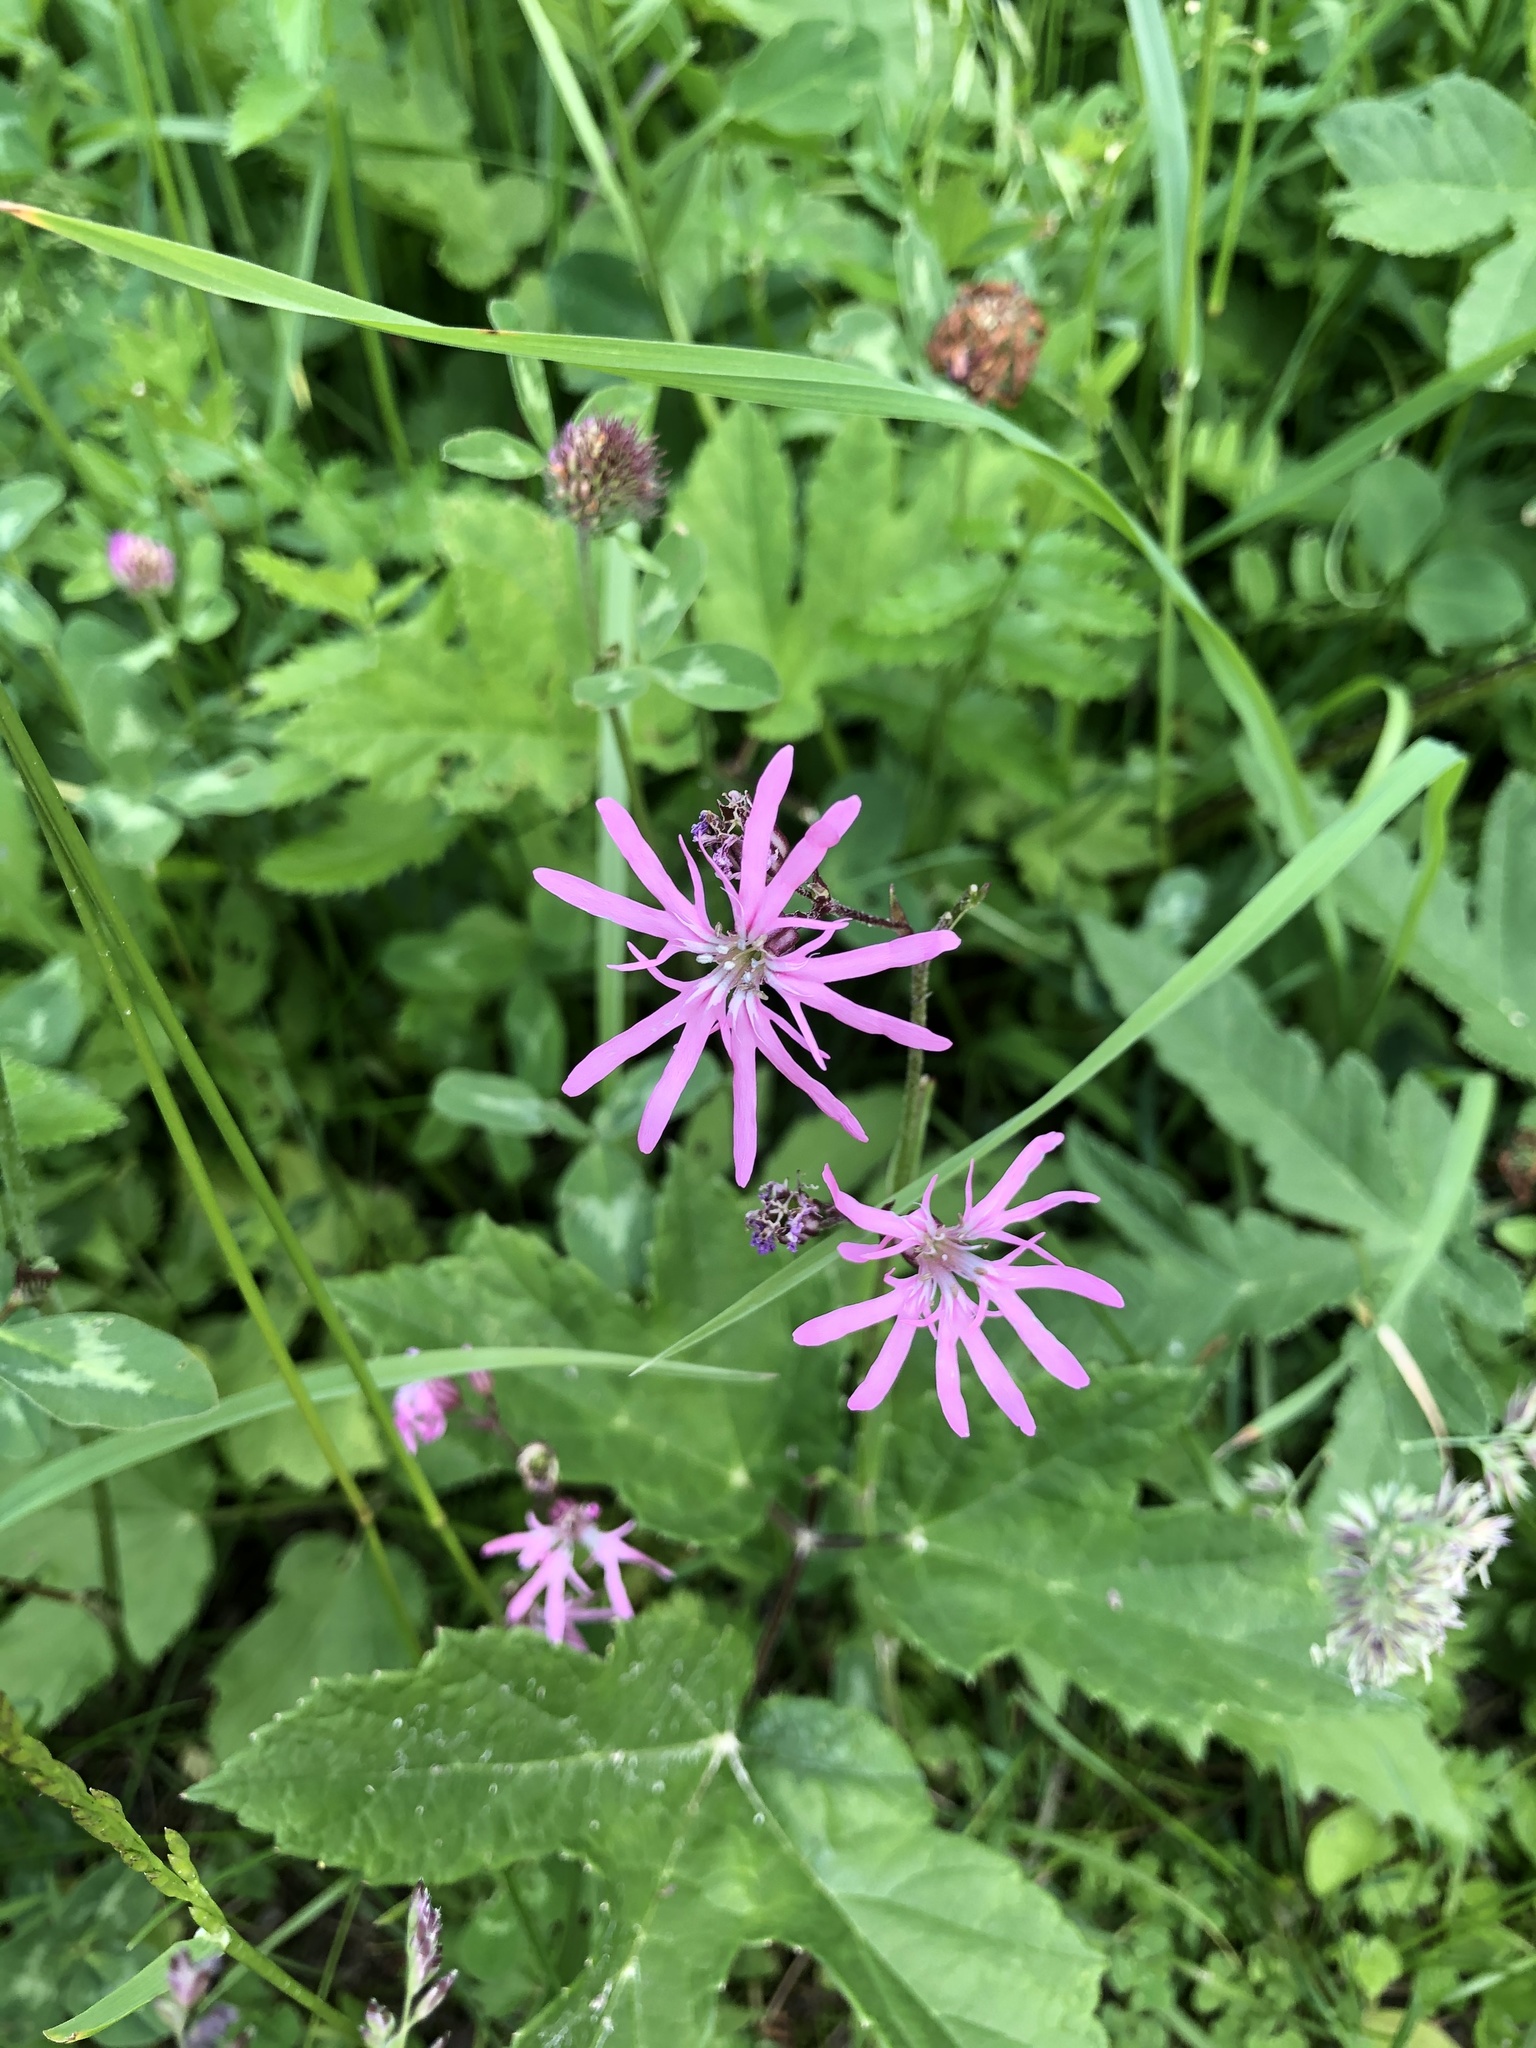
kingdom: Plantae
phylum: Tracheophyta
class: Magnoliopsida
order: Caryophyllales
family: Caryophyllaceae
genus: Silene
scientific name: Silene flos-cuculi
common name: Ragged-robin
